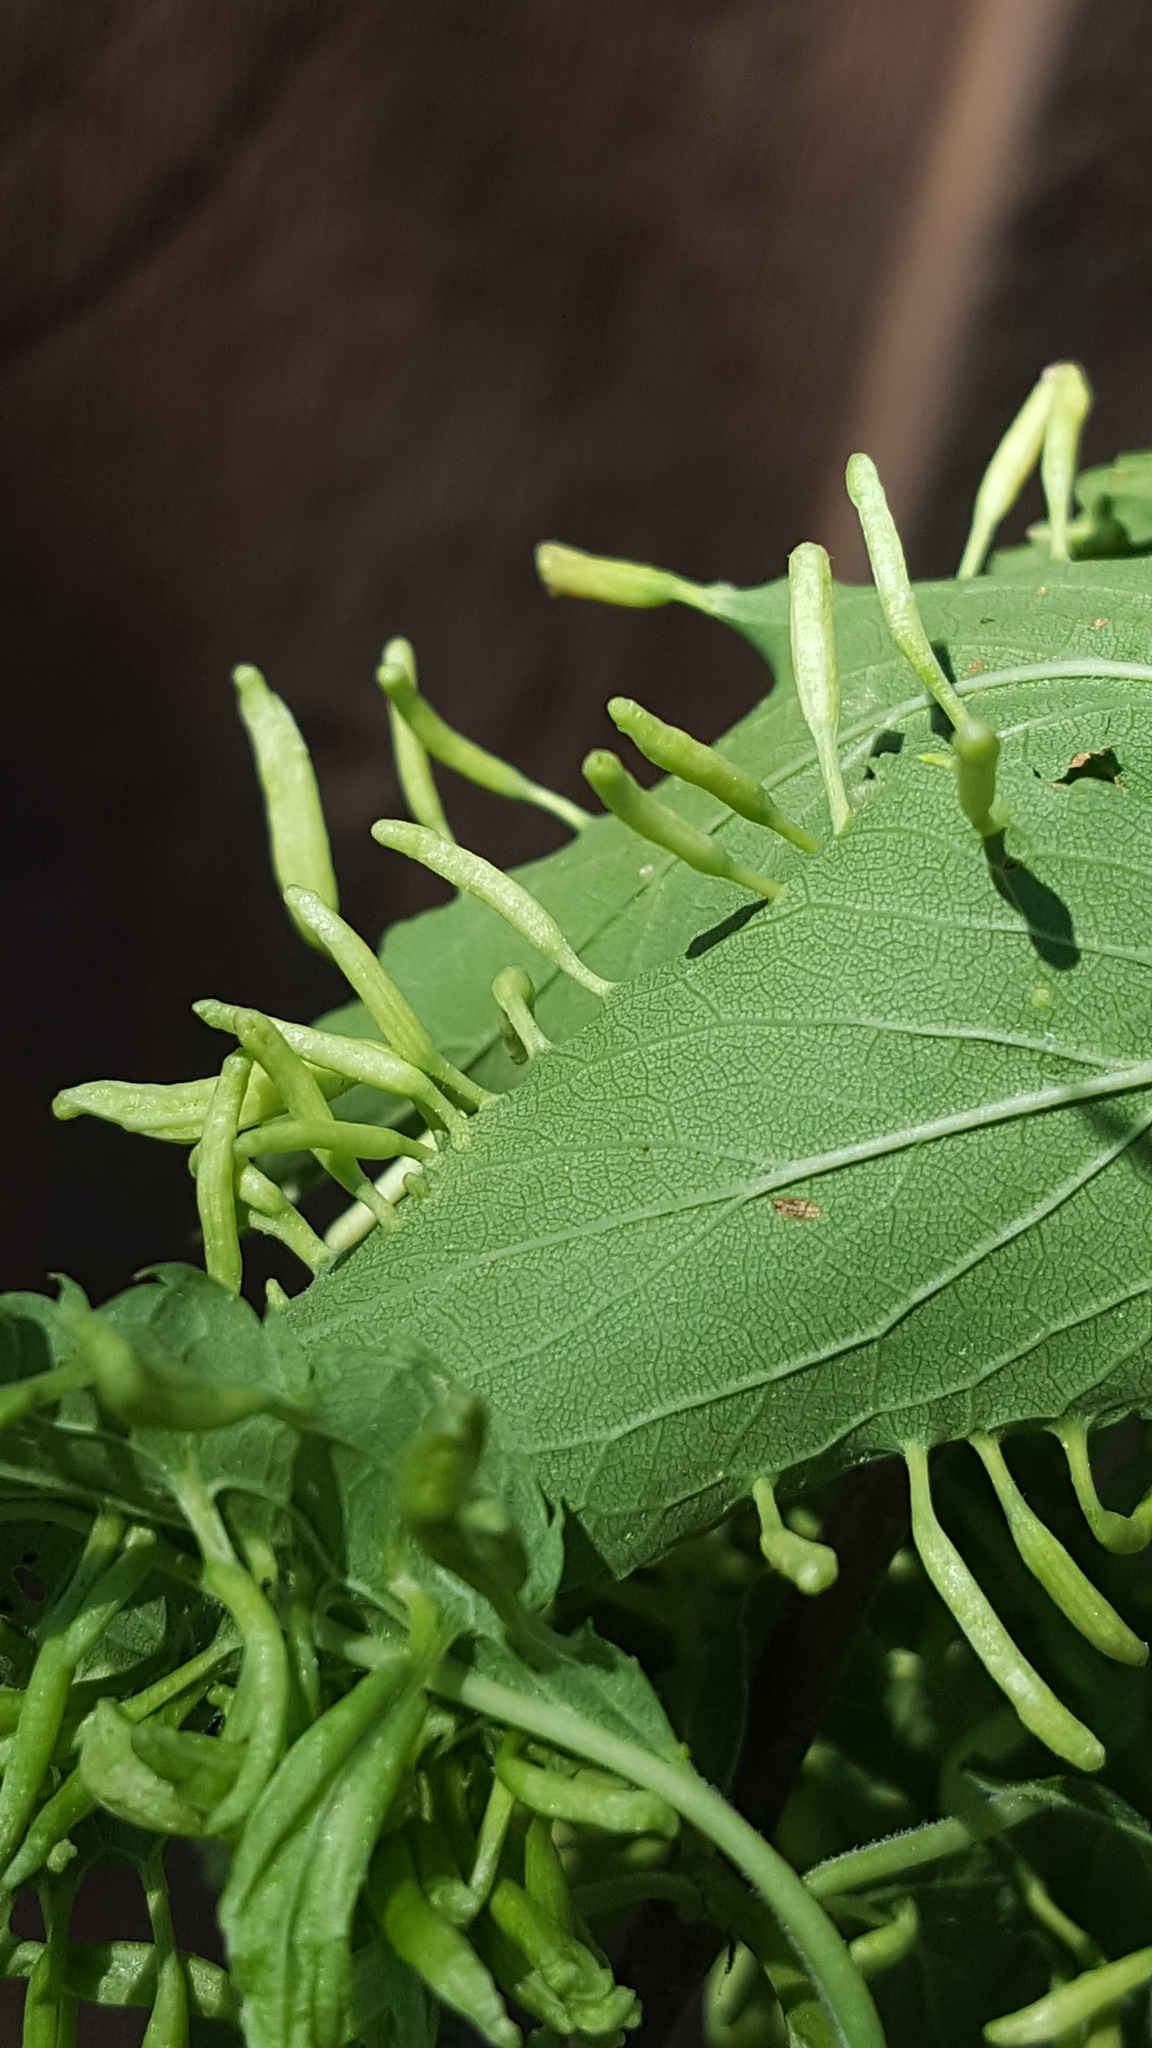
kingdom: Animalia
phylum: Arthropoda
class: Arachnida
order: Trombidiformes
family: Eriophyidae
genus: Eriophyes
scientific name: Eriophyes
